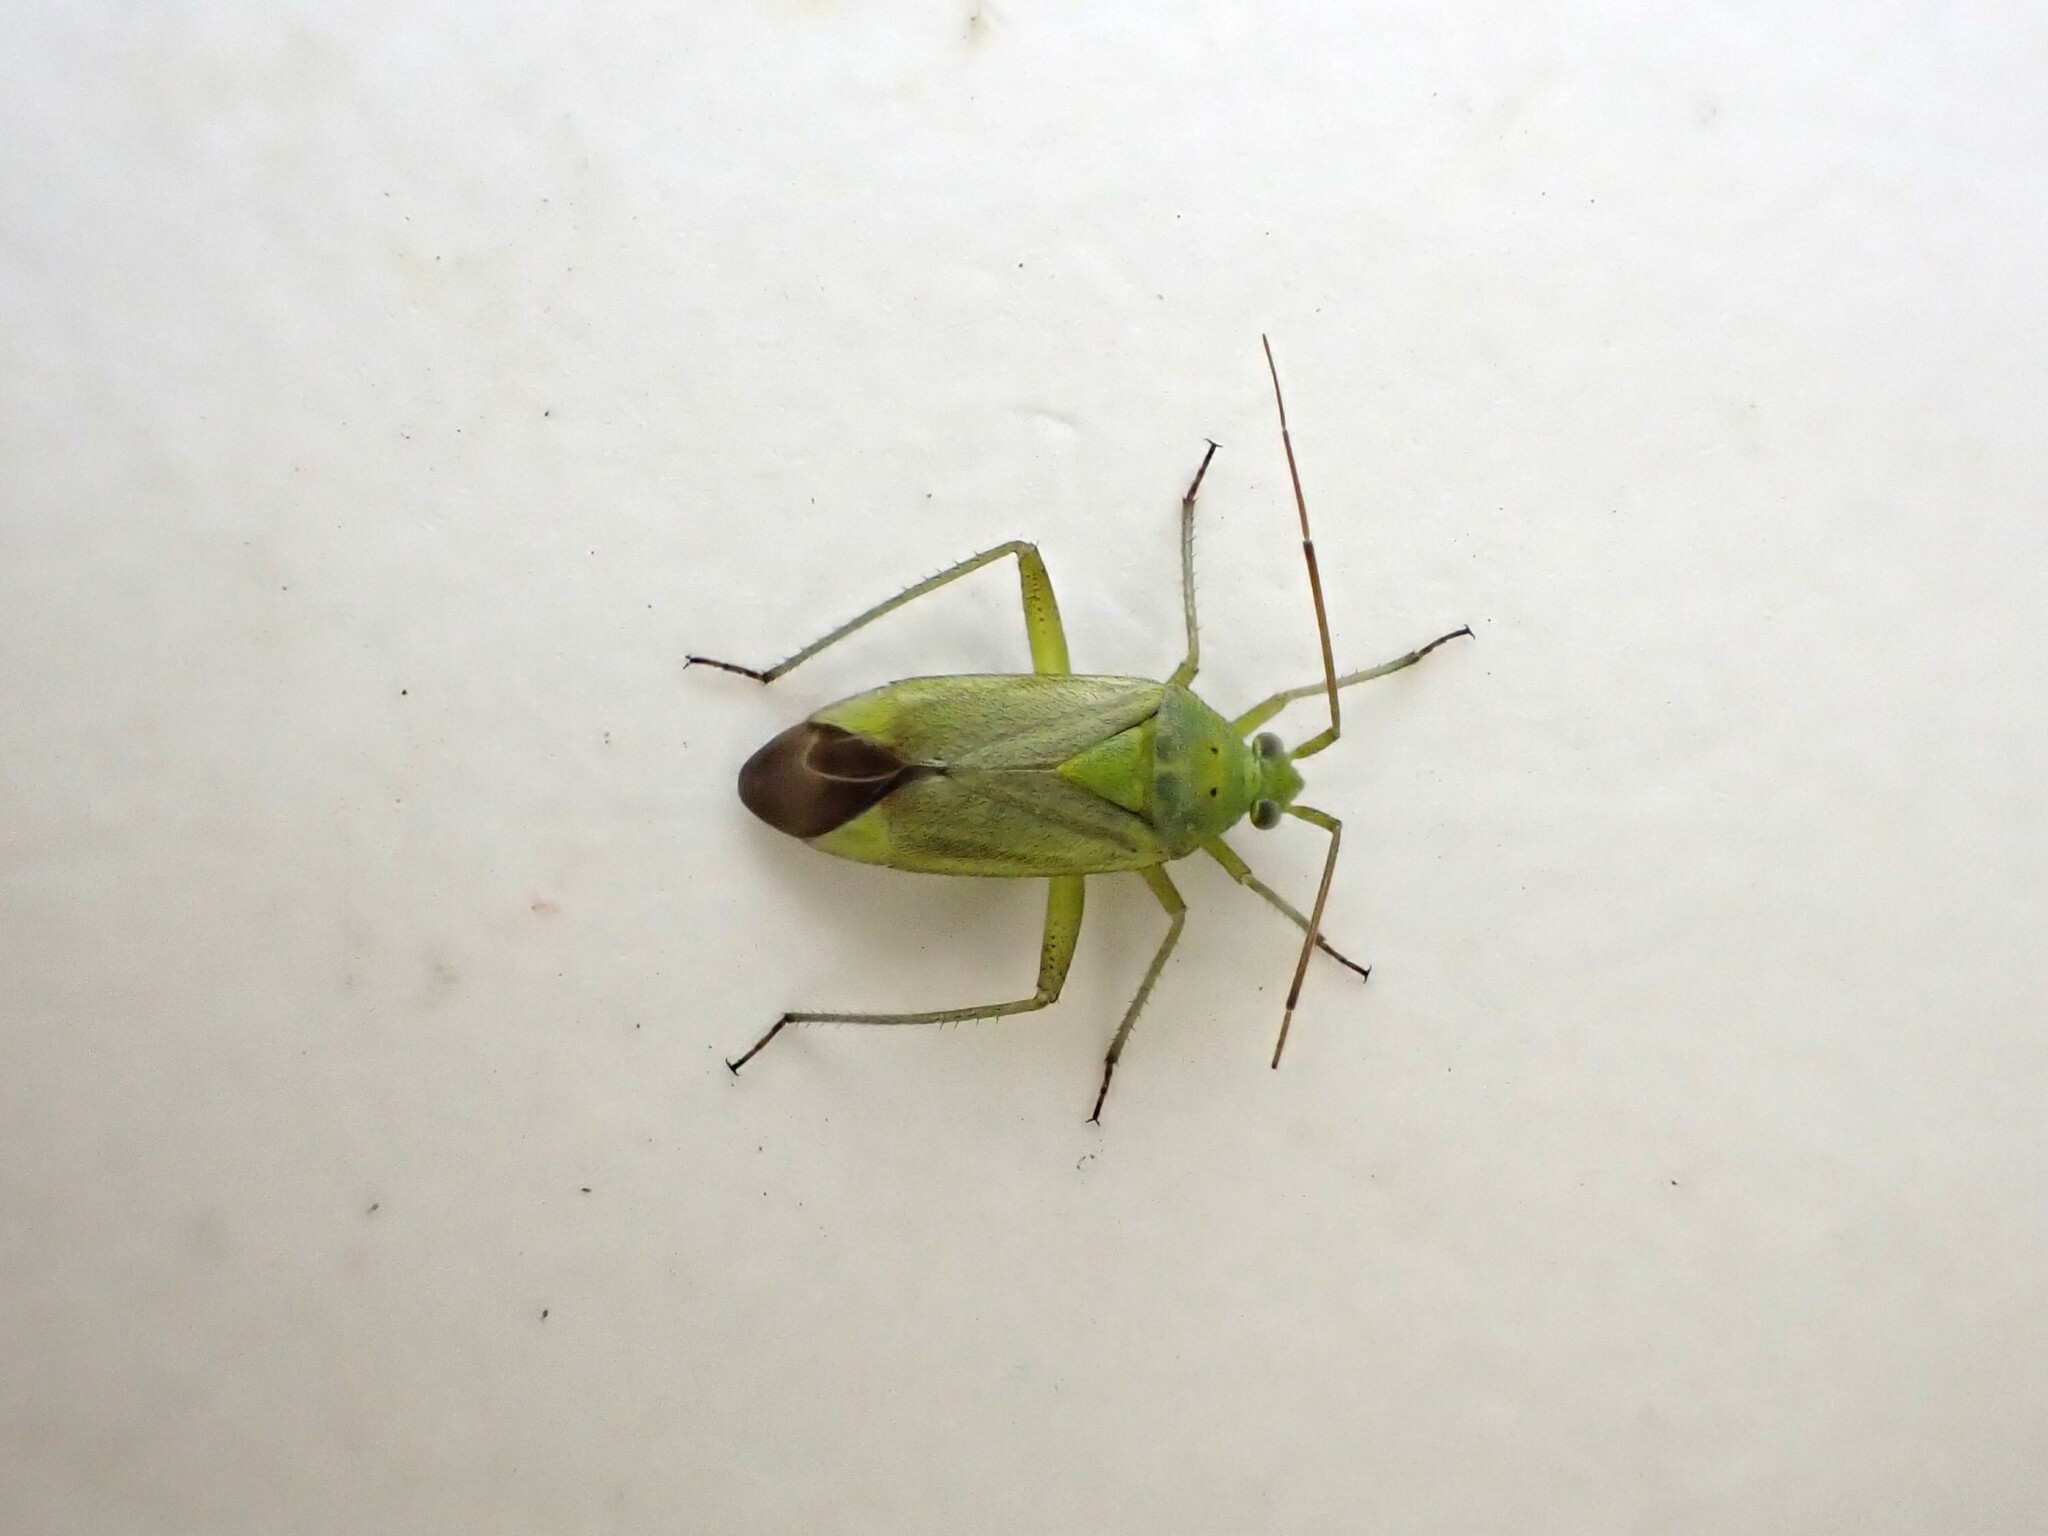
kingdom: Animalia
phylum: Arthropoda
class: Insecta
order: Hemiptera
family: Miridae
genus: Closterotomus
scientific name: Closterotomus norvegicus
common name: Plant bug
